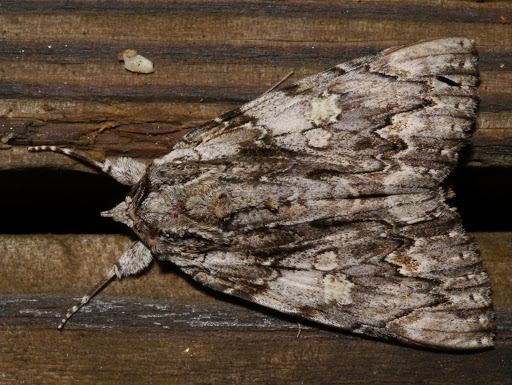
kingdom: Animalia
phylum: Arthropoda
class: Insecta
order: Lepidoptera
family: Erebidae
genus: Catocala
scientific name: Catocala coccinata
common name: Scarlet underwing
